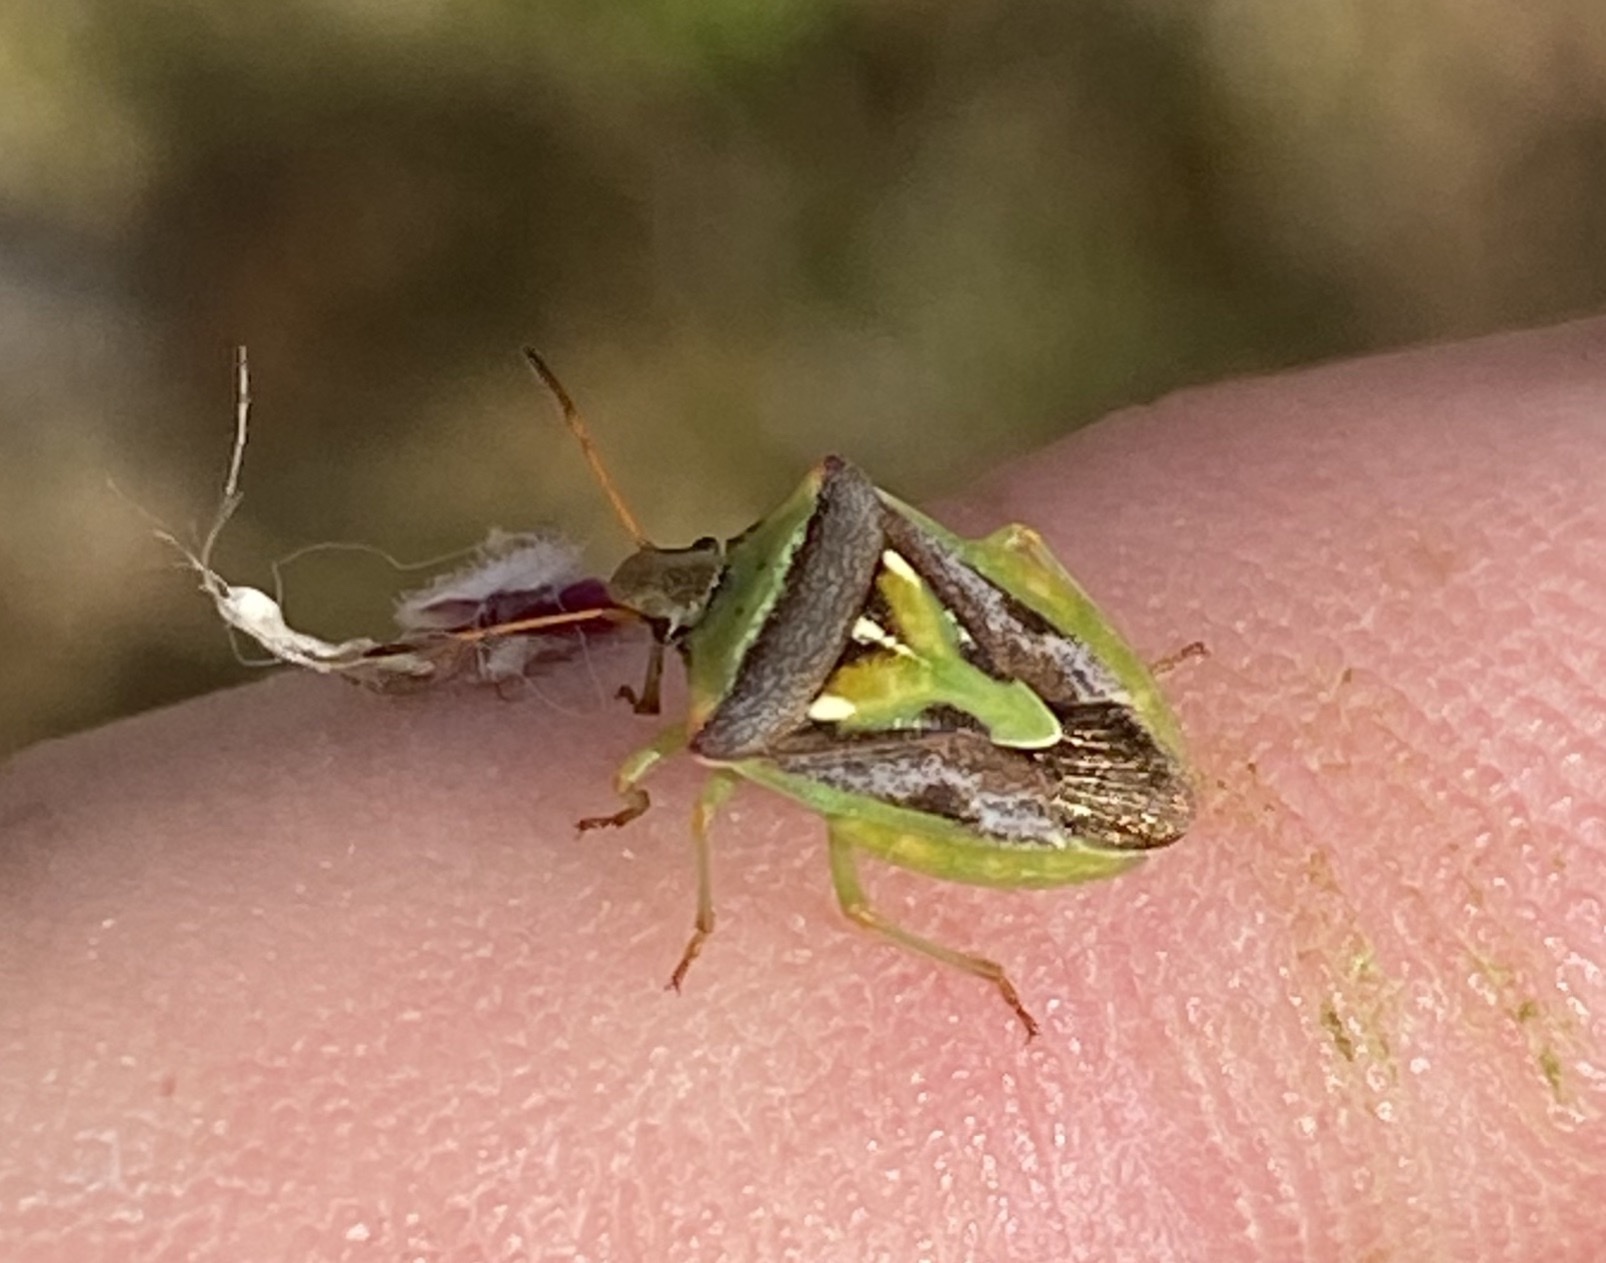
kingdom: Animalia
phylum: Arthropoda
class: Insecta
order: Hemiptera
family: Pentatomidae
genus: Veterna
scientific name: Veterna
